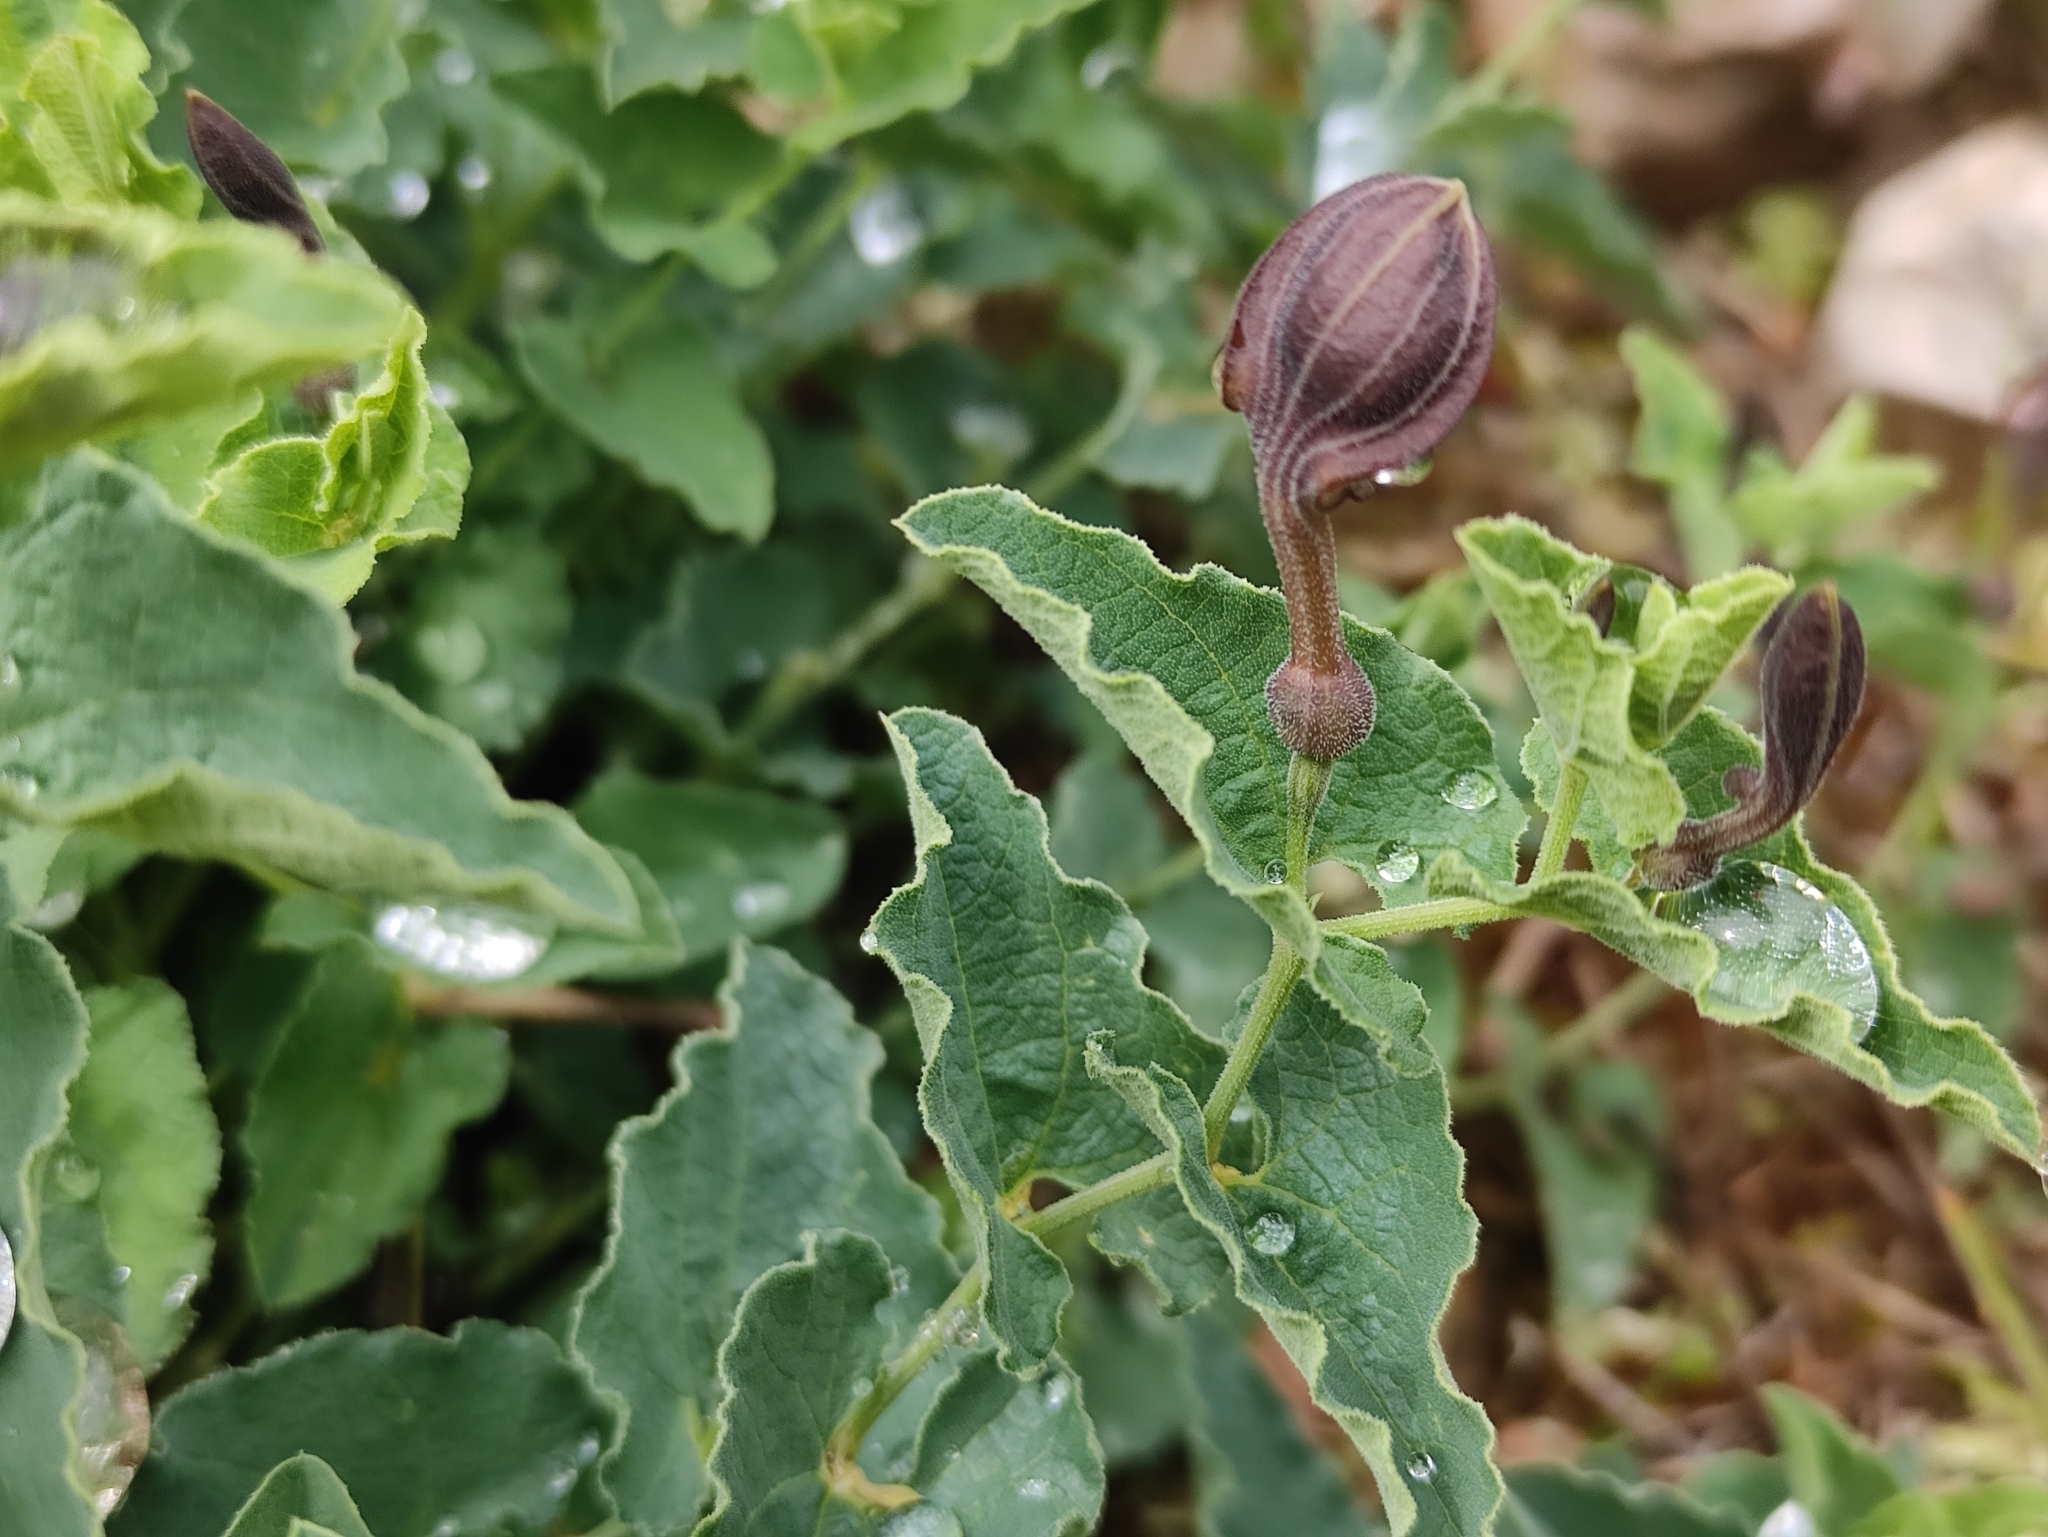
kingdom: Plantae
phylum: Tracheophyta
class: Magnoliopsida
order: Piperales
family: Aristolochiaceae
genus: Aristolochia
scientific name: Aristolochia pistolochia
